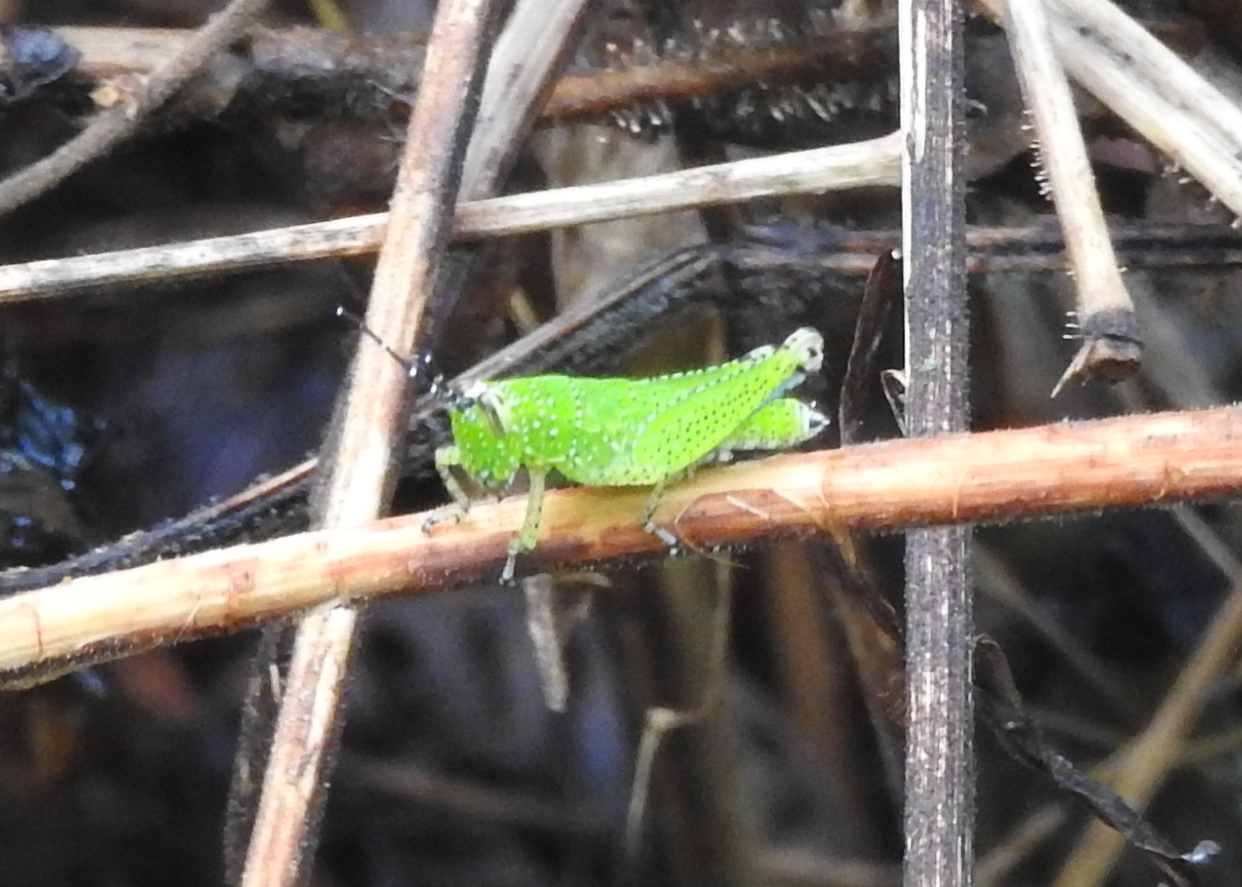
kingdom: Animalia
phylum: Arthropoda
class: Insecta
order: Orthoptera
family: Acrididae
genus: Xenocatantops
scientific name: Xenocatantops humile
